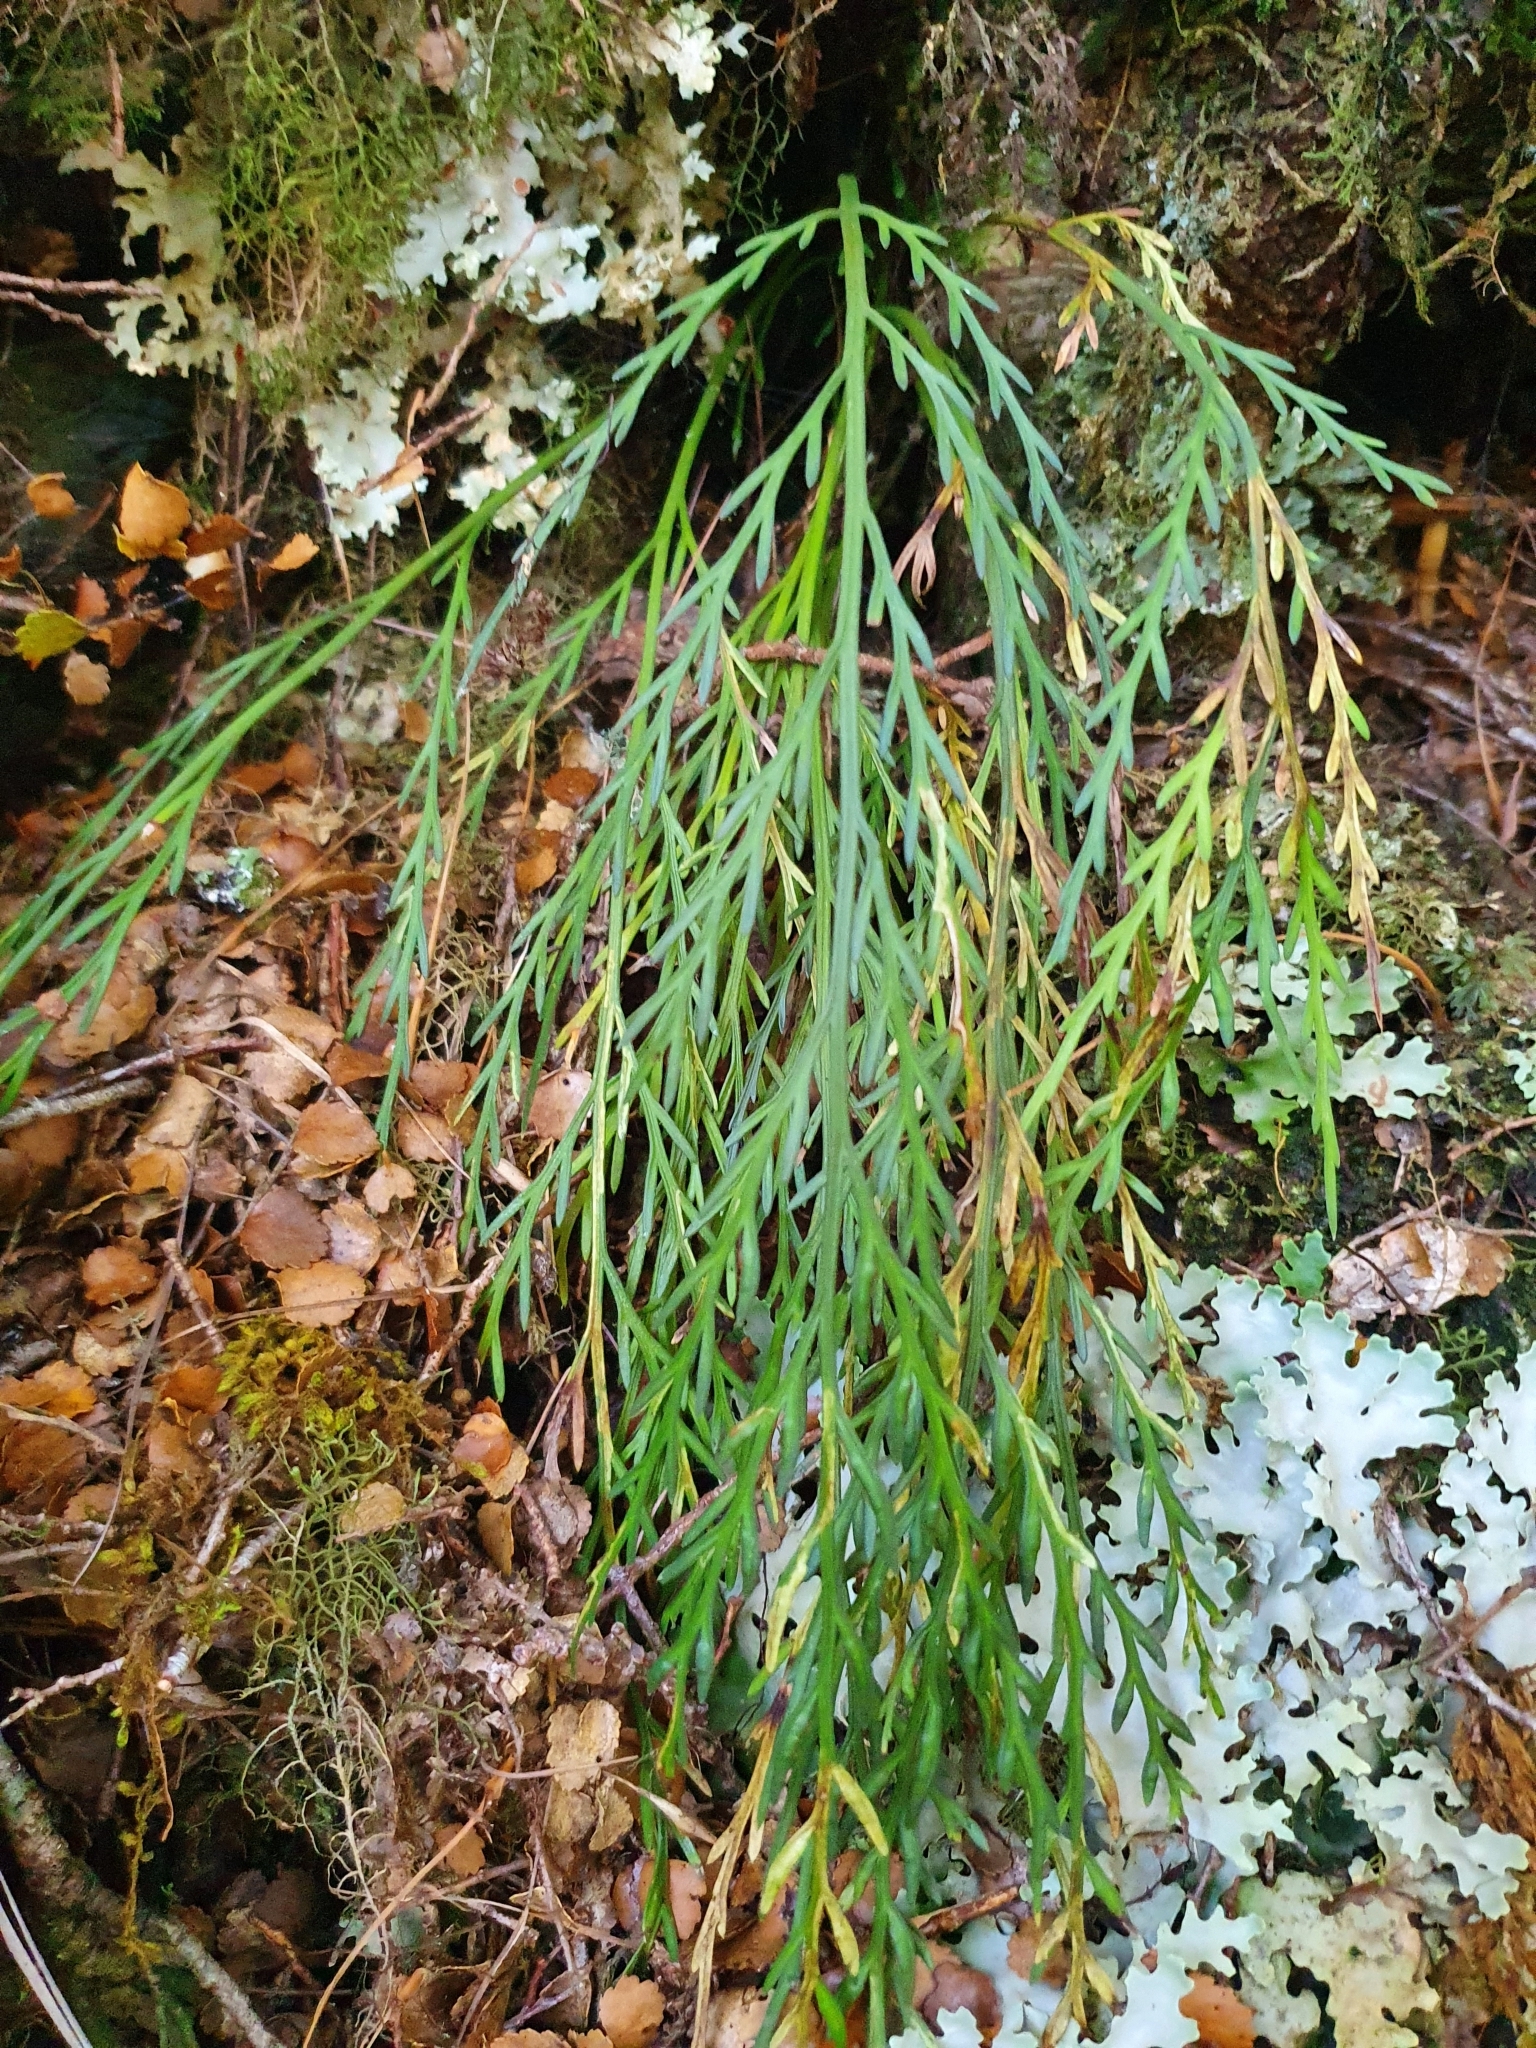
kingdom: Plantae
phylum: Tracheophyta
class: Polypodiopsida
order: Polypodiales
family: Aspleniaceae
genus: Asplenium
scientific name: Asplenium flaccidum
